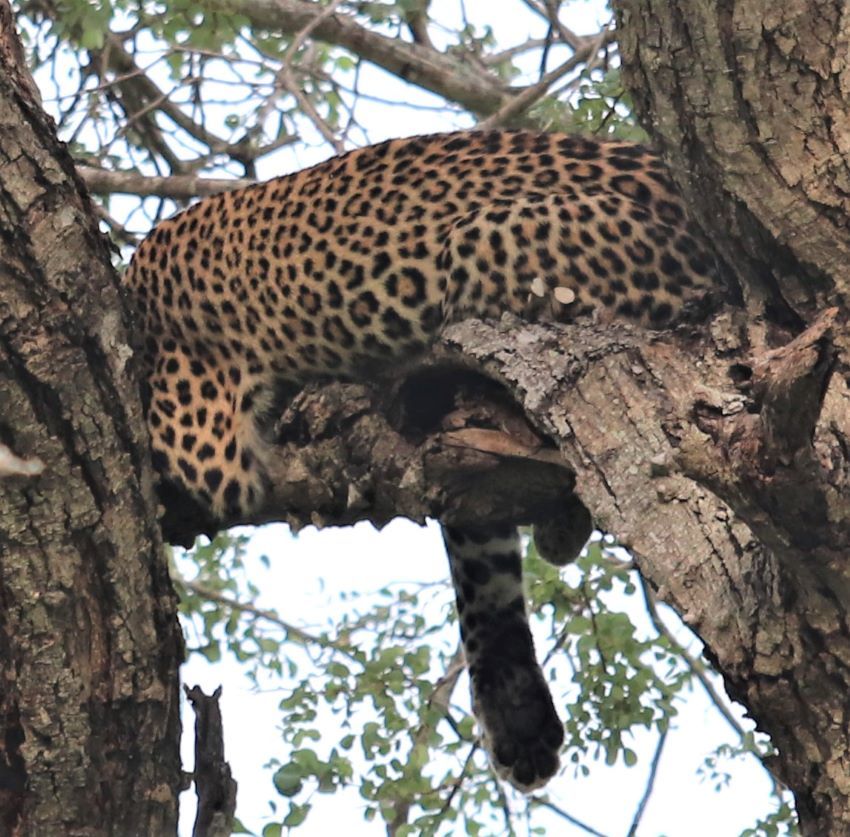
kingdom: Animalia
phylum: Chordata
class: Mammalia
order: Carnivora
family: Felidae
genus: Panthera
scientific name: Panthera pardus
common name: Leopard
